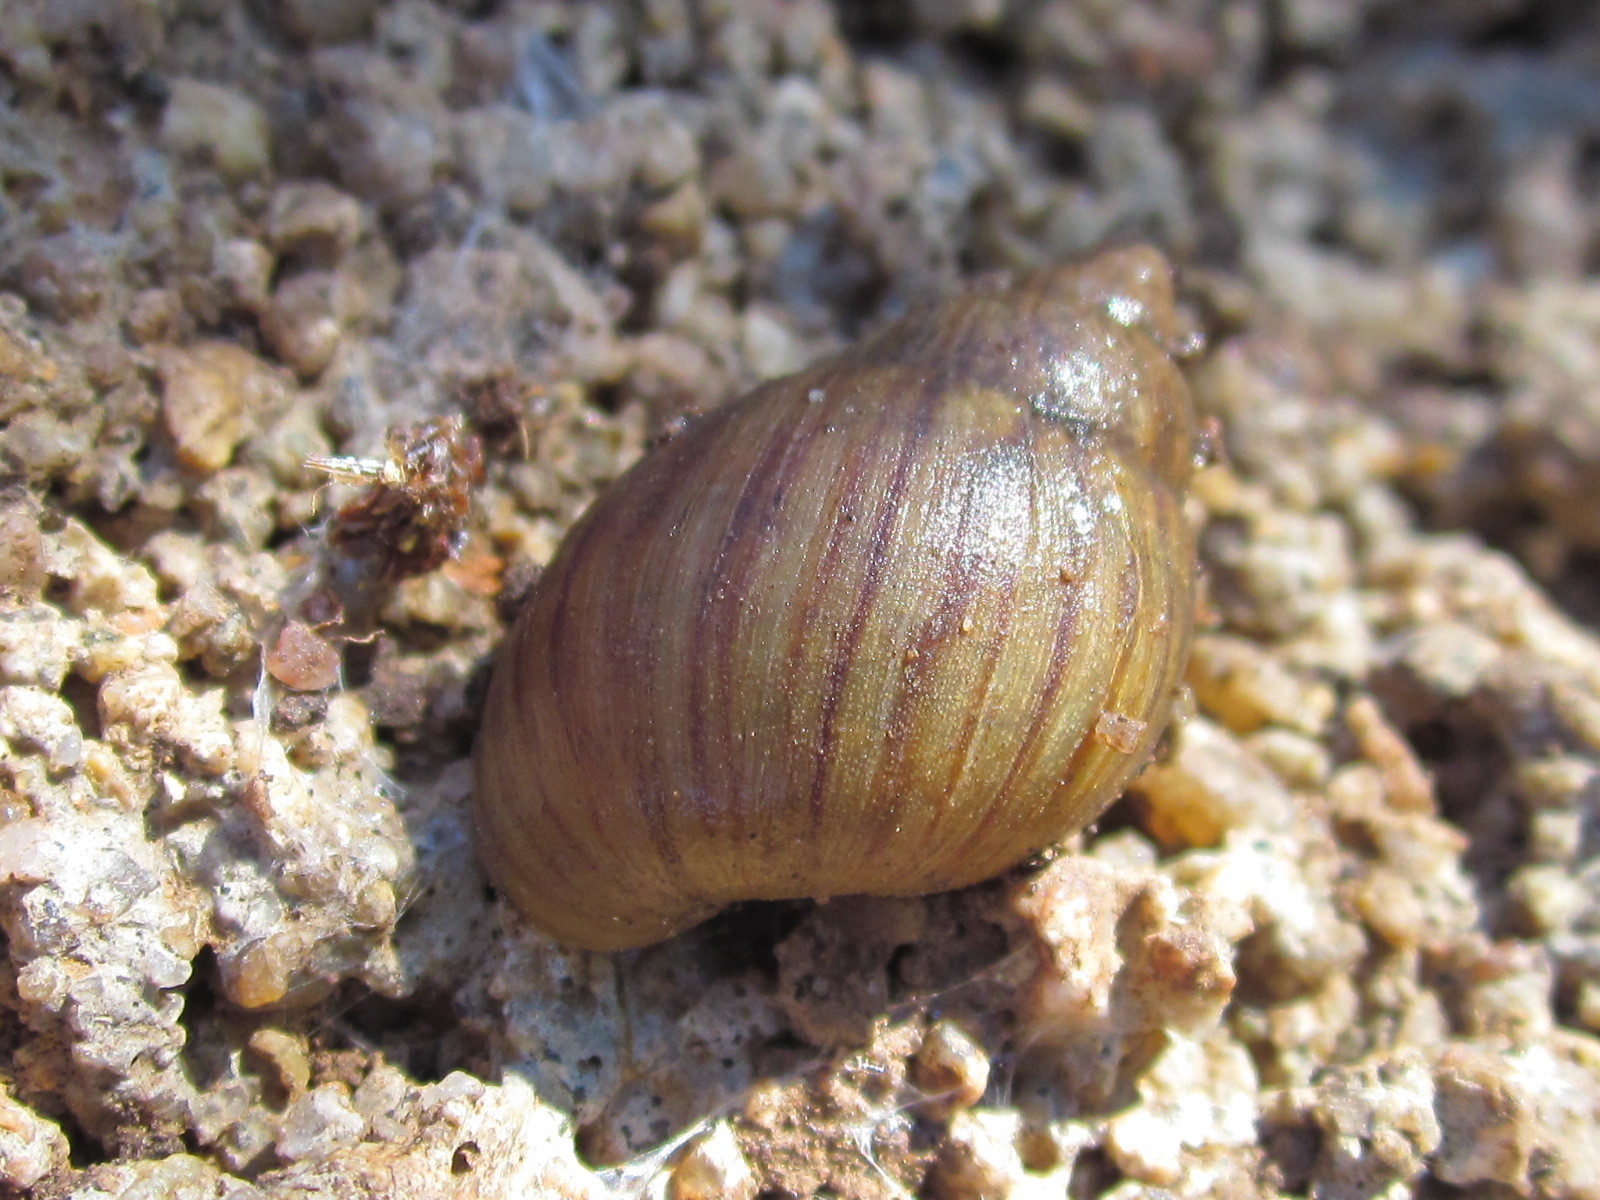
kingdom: Animalia
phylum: Mollusca
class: Gastropoda
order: Stylommatophora
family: Bothriembryontidae
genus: Plectostylus
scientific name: Plectostylus chilensis
